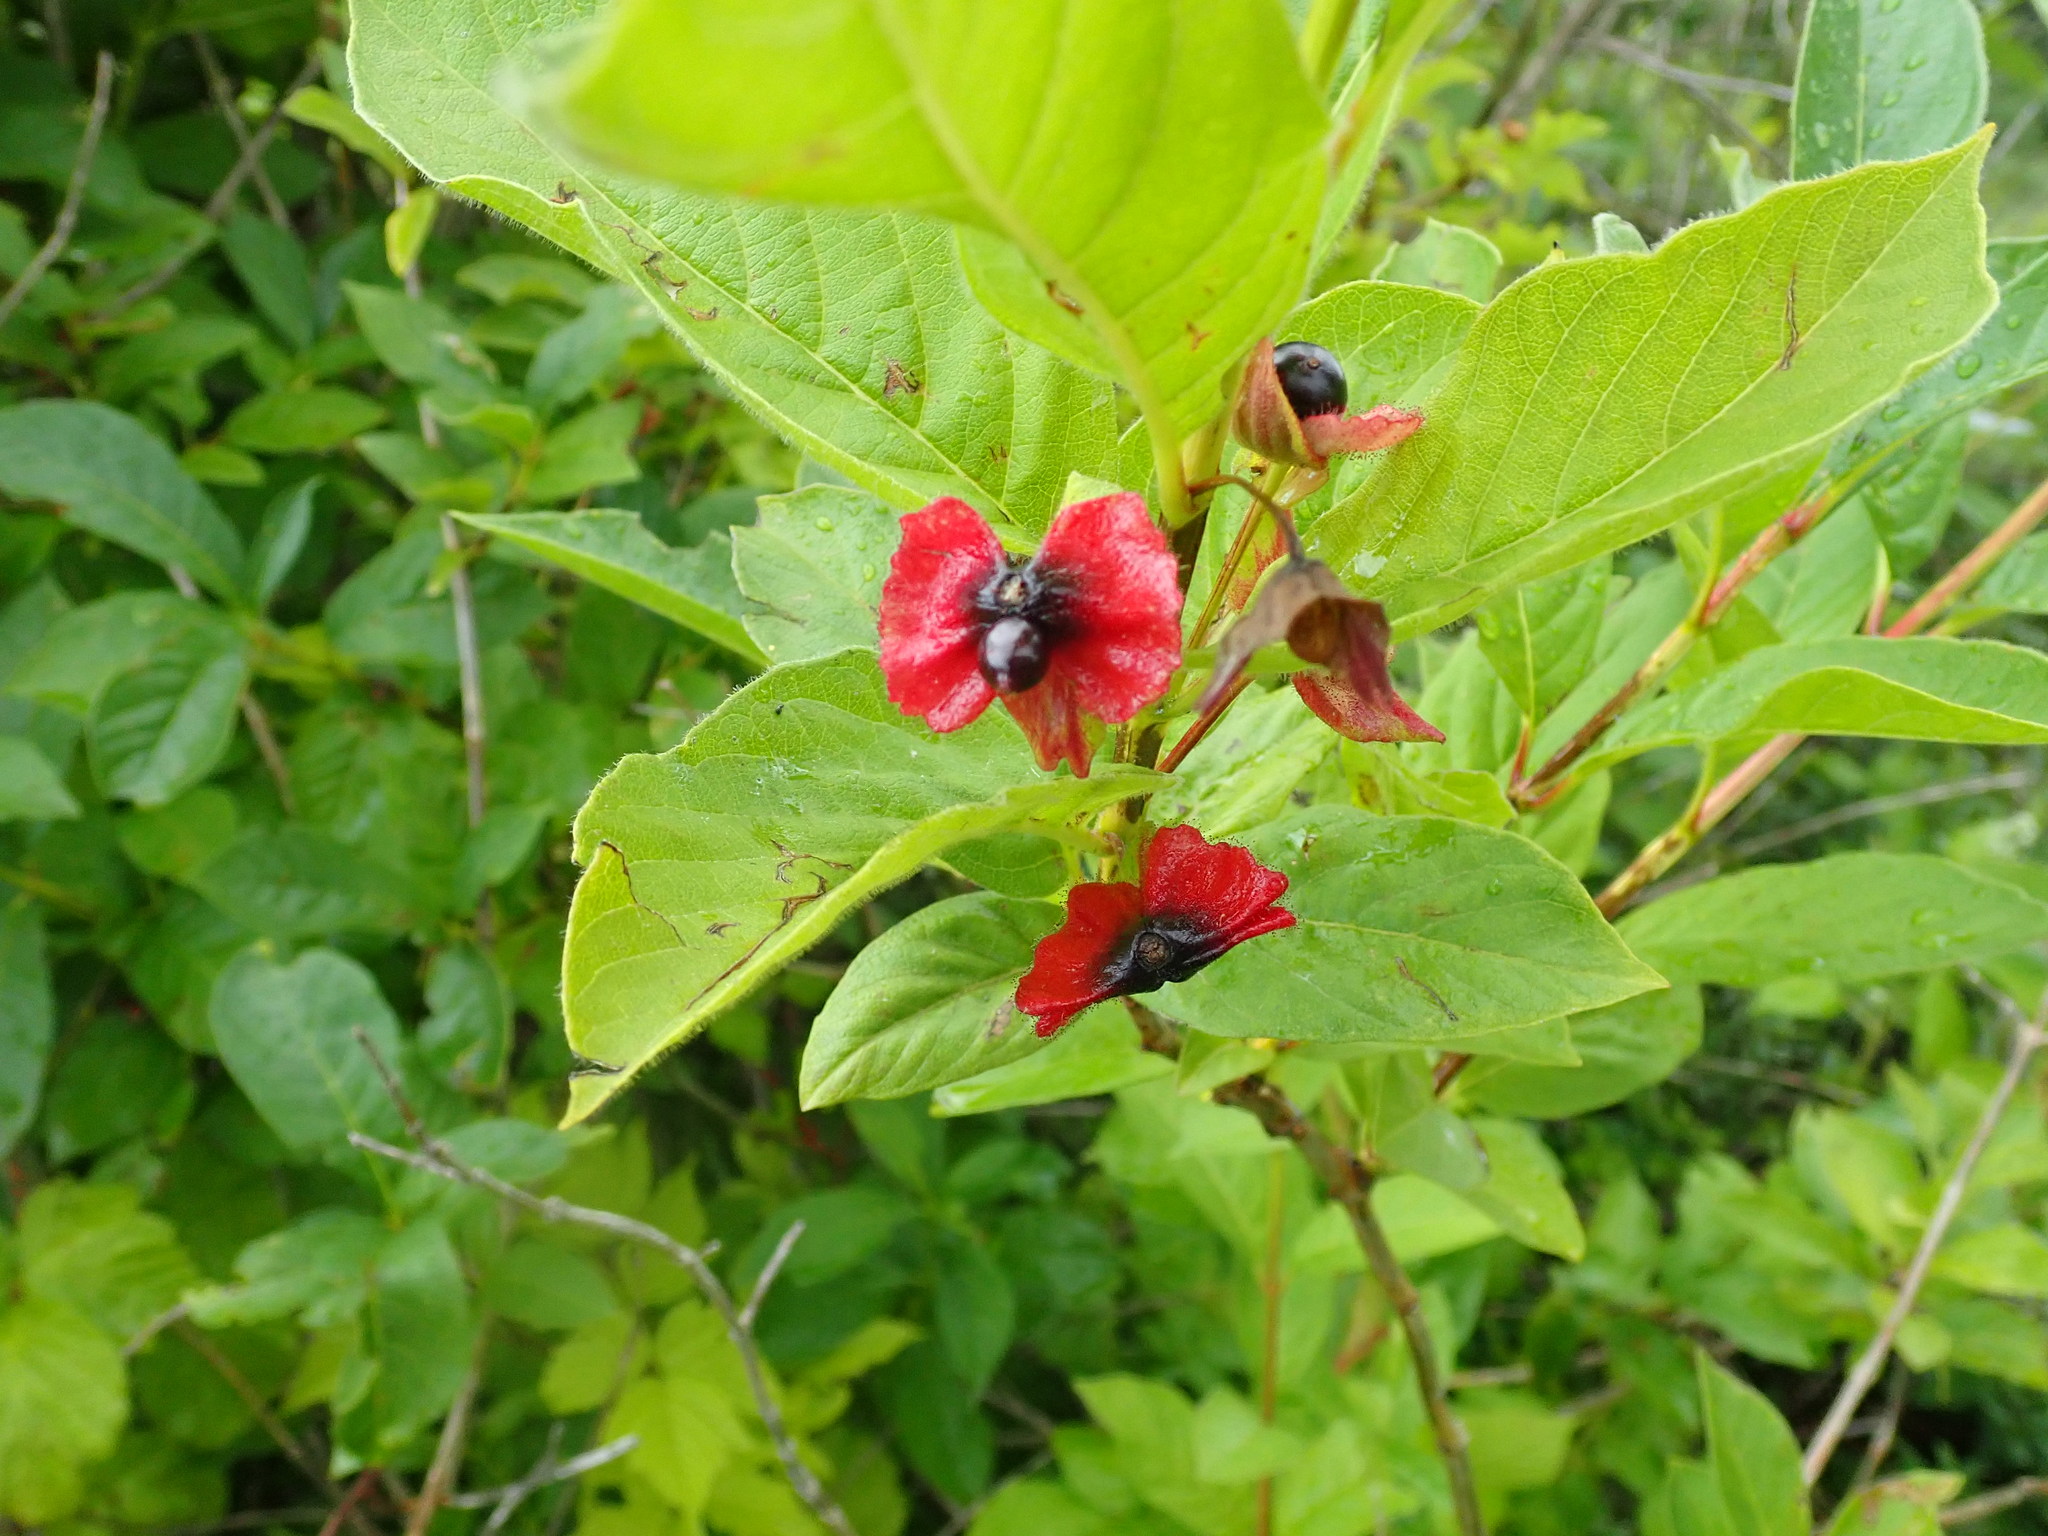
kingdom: Plantae
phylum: Tracheophyta
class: Magnoliopsida
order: Dipsacales
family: Caprifoliaceae
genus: Lonicera
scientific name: Lonicera involucrata
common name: Californian honeysuckle
